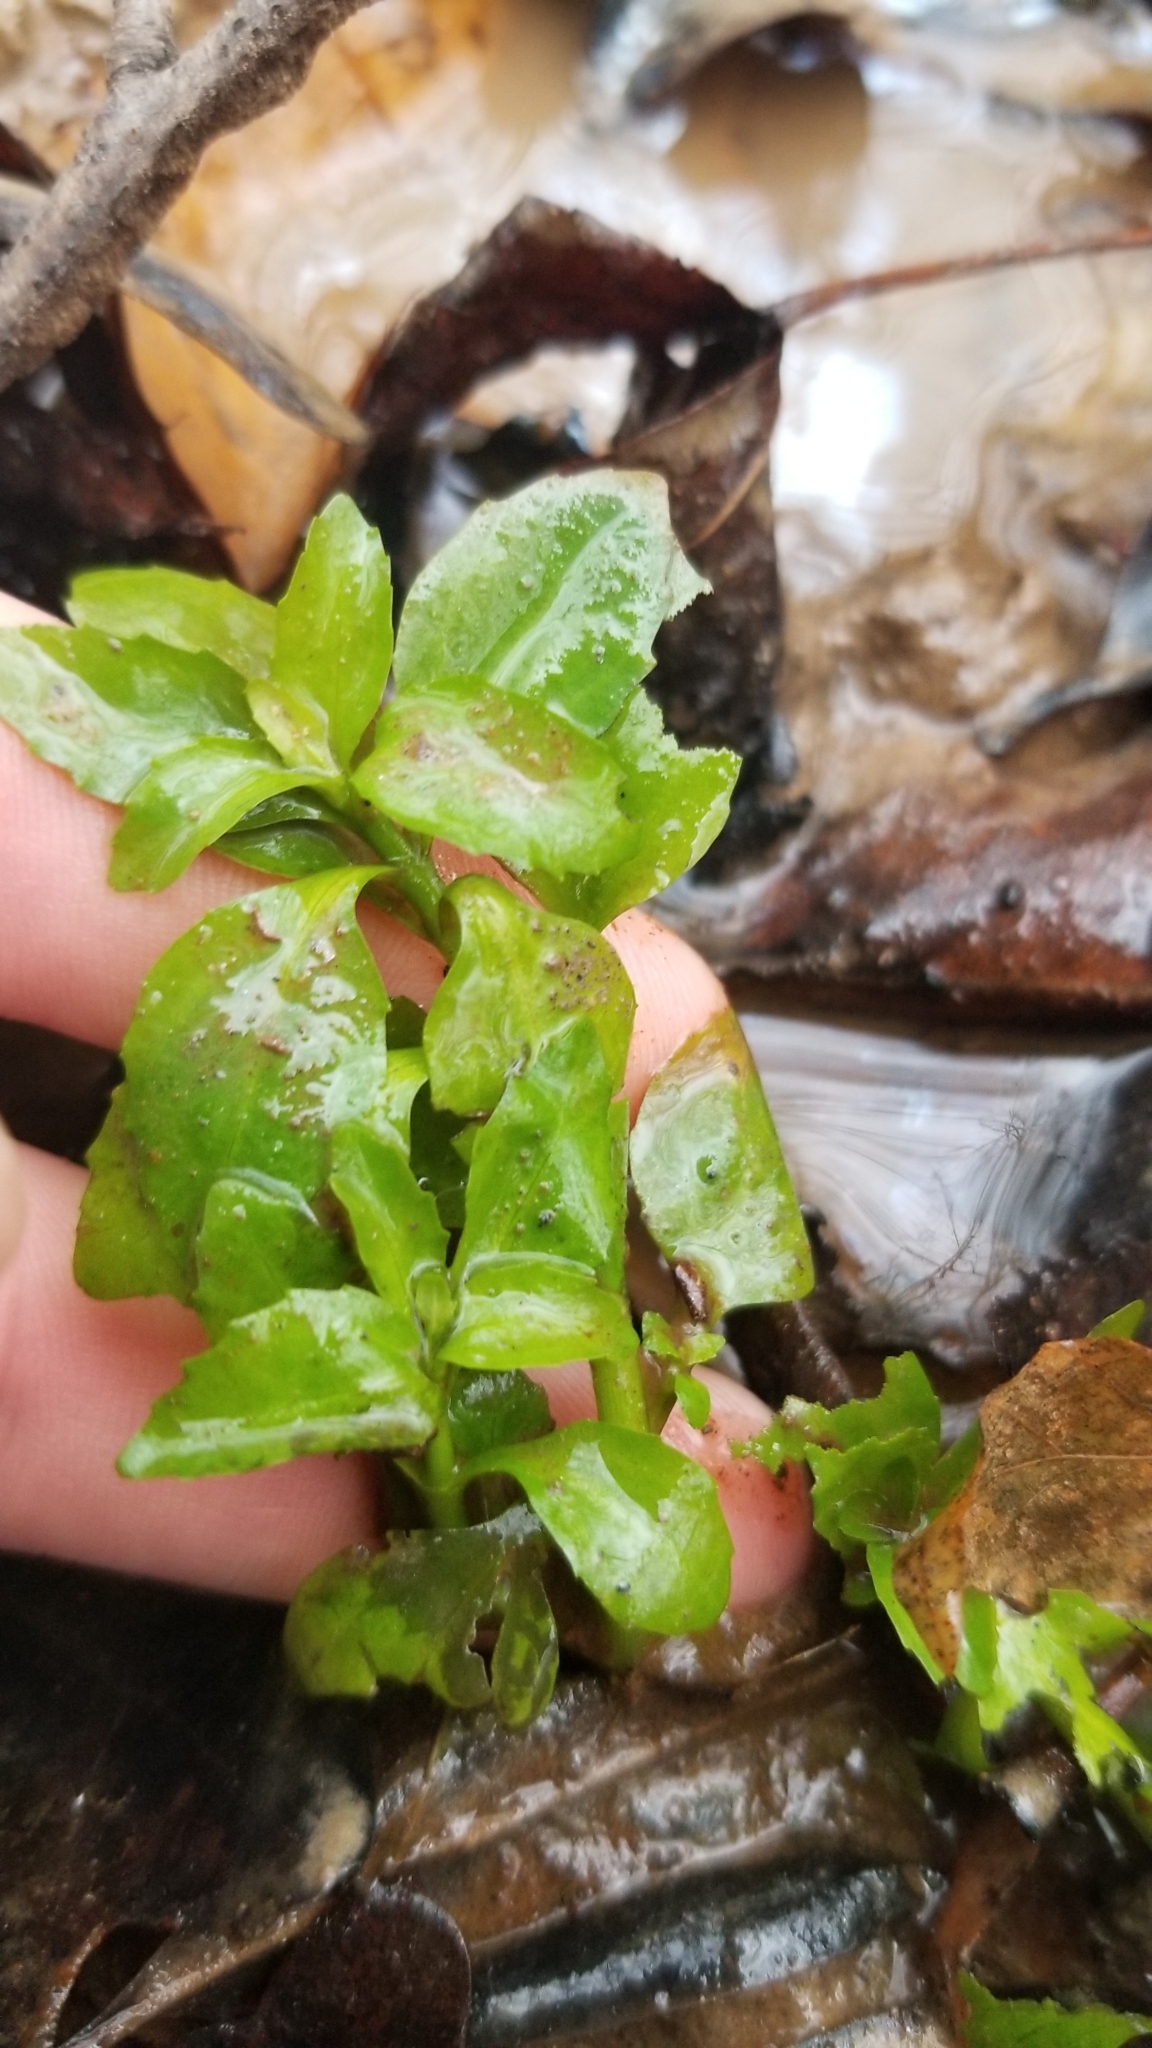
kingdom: Plantae
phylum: Tracheophyta
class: Magnoliopsida
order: Myrtales
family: Onagraceae
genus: Ludwigia
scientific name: Ludwigia palustris
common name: Hampshire-purslane
